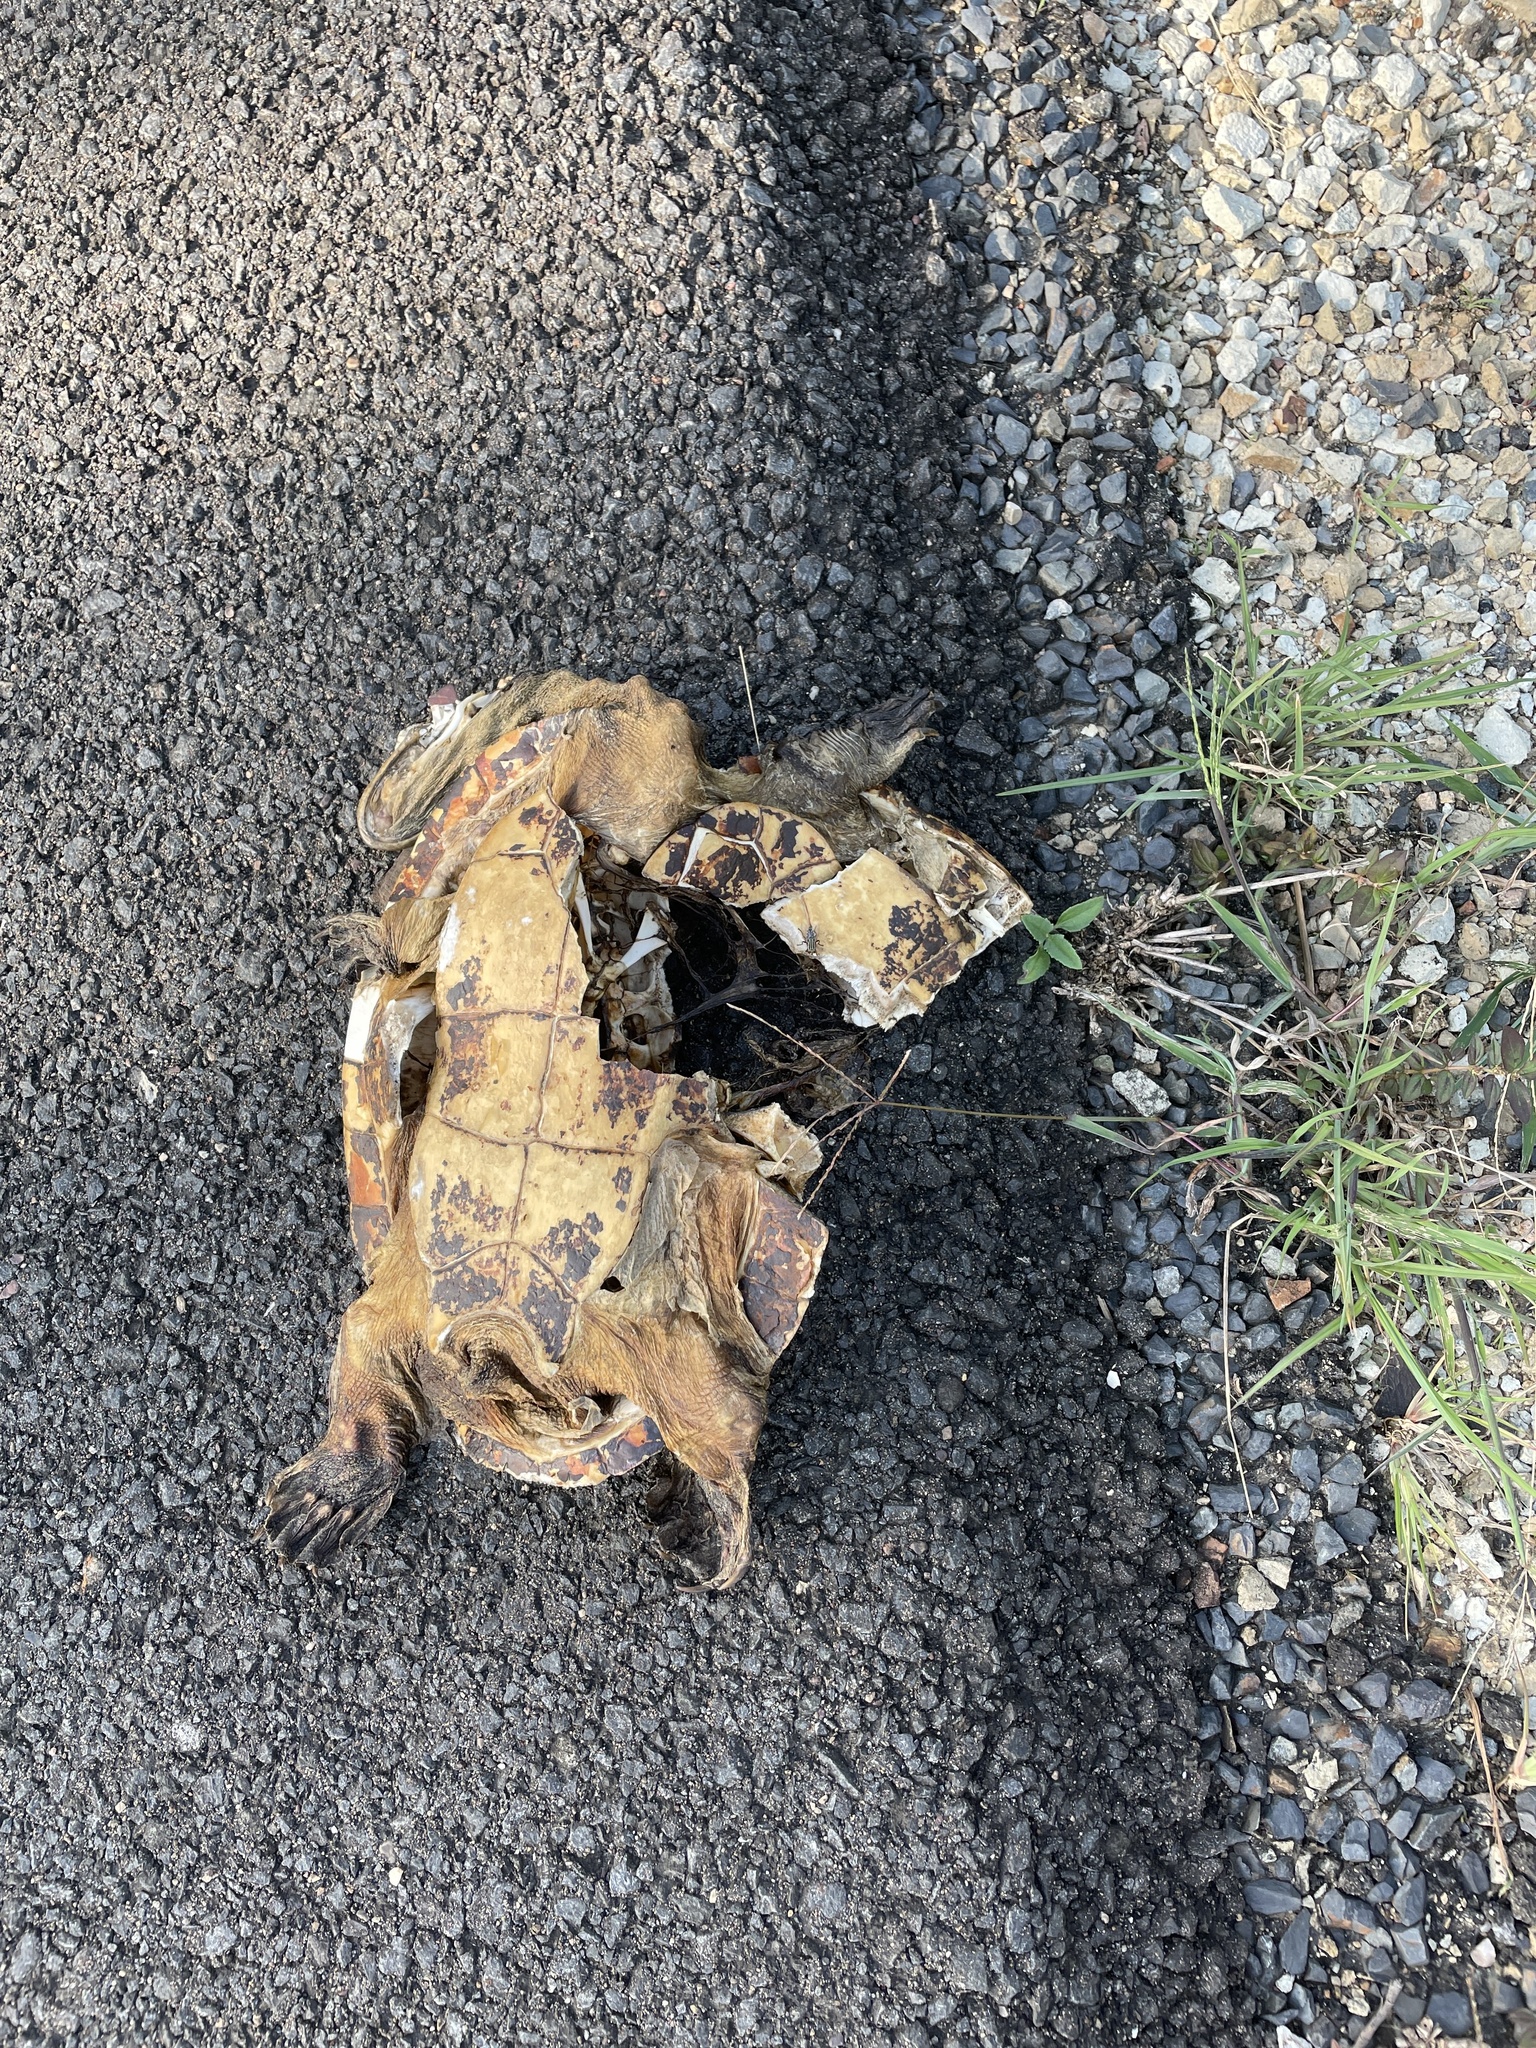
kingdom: Animalia
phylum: Chordata
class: Testudines
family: Chelidae
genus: Chelodina
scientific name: Chelodina expansa
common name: Giant snakeneck turtle
